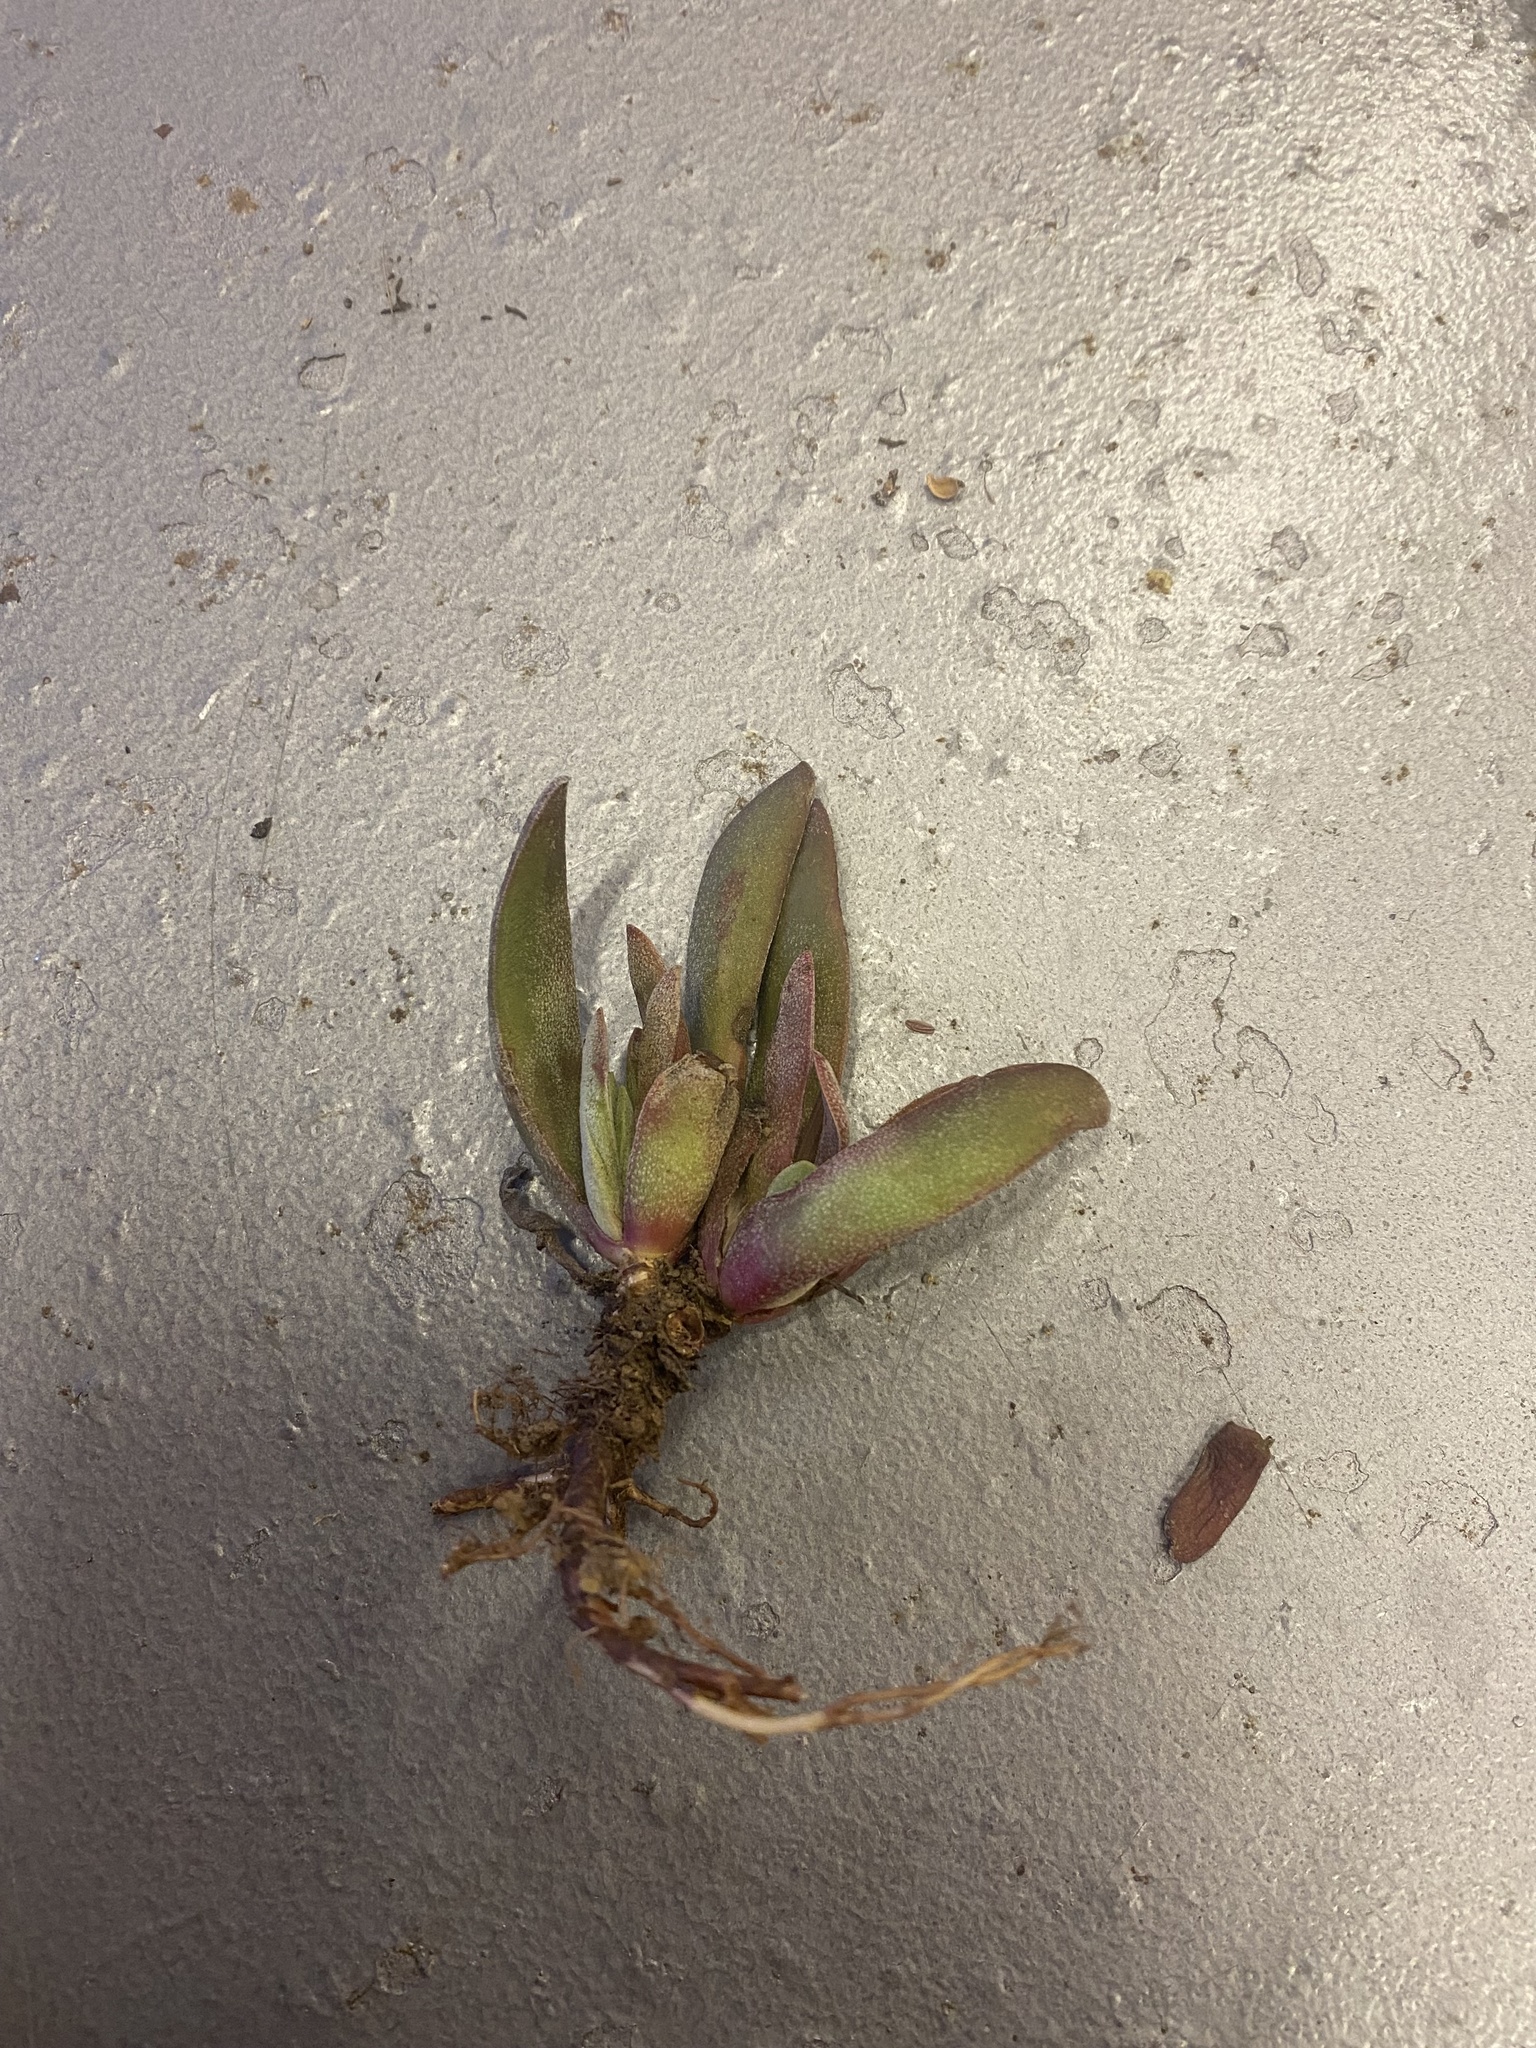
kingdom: Plantae
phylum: Tracheophyta
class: Magnoliopsida
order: Saxifragales
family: Crassulaceae
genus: Crassula
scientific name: Crassula nudicaulis
